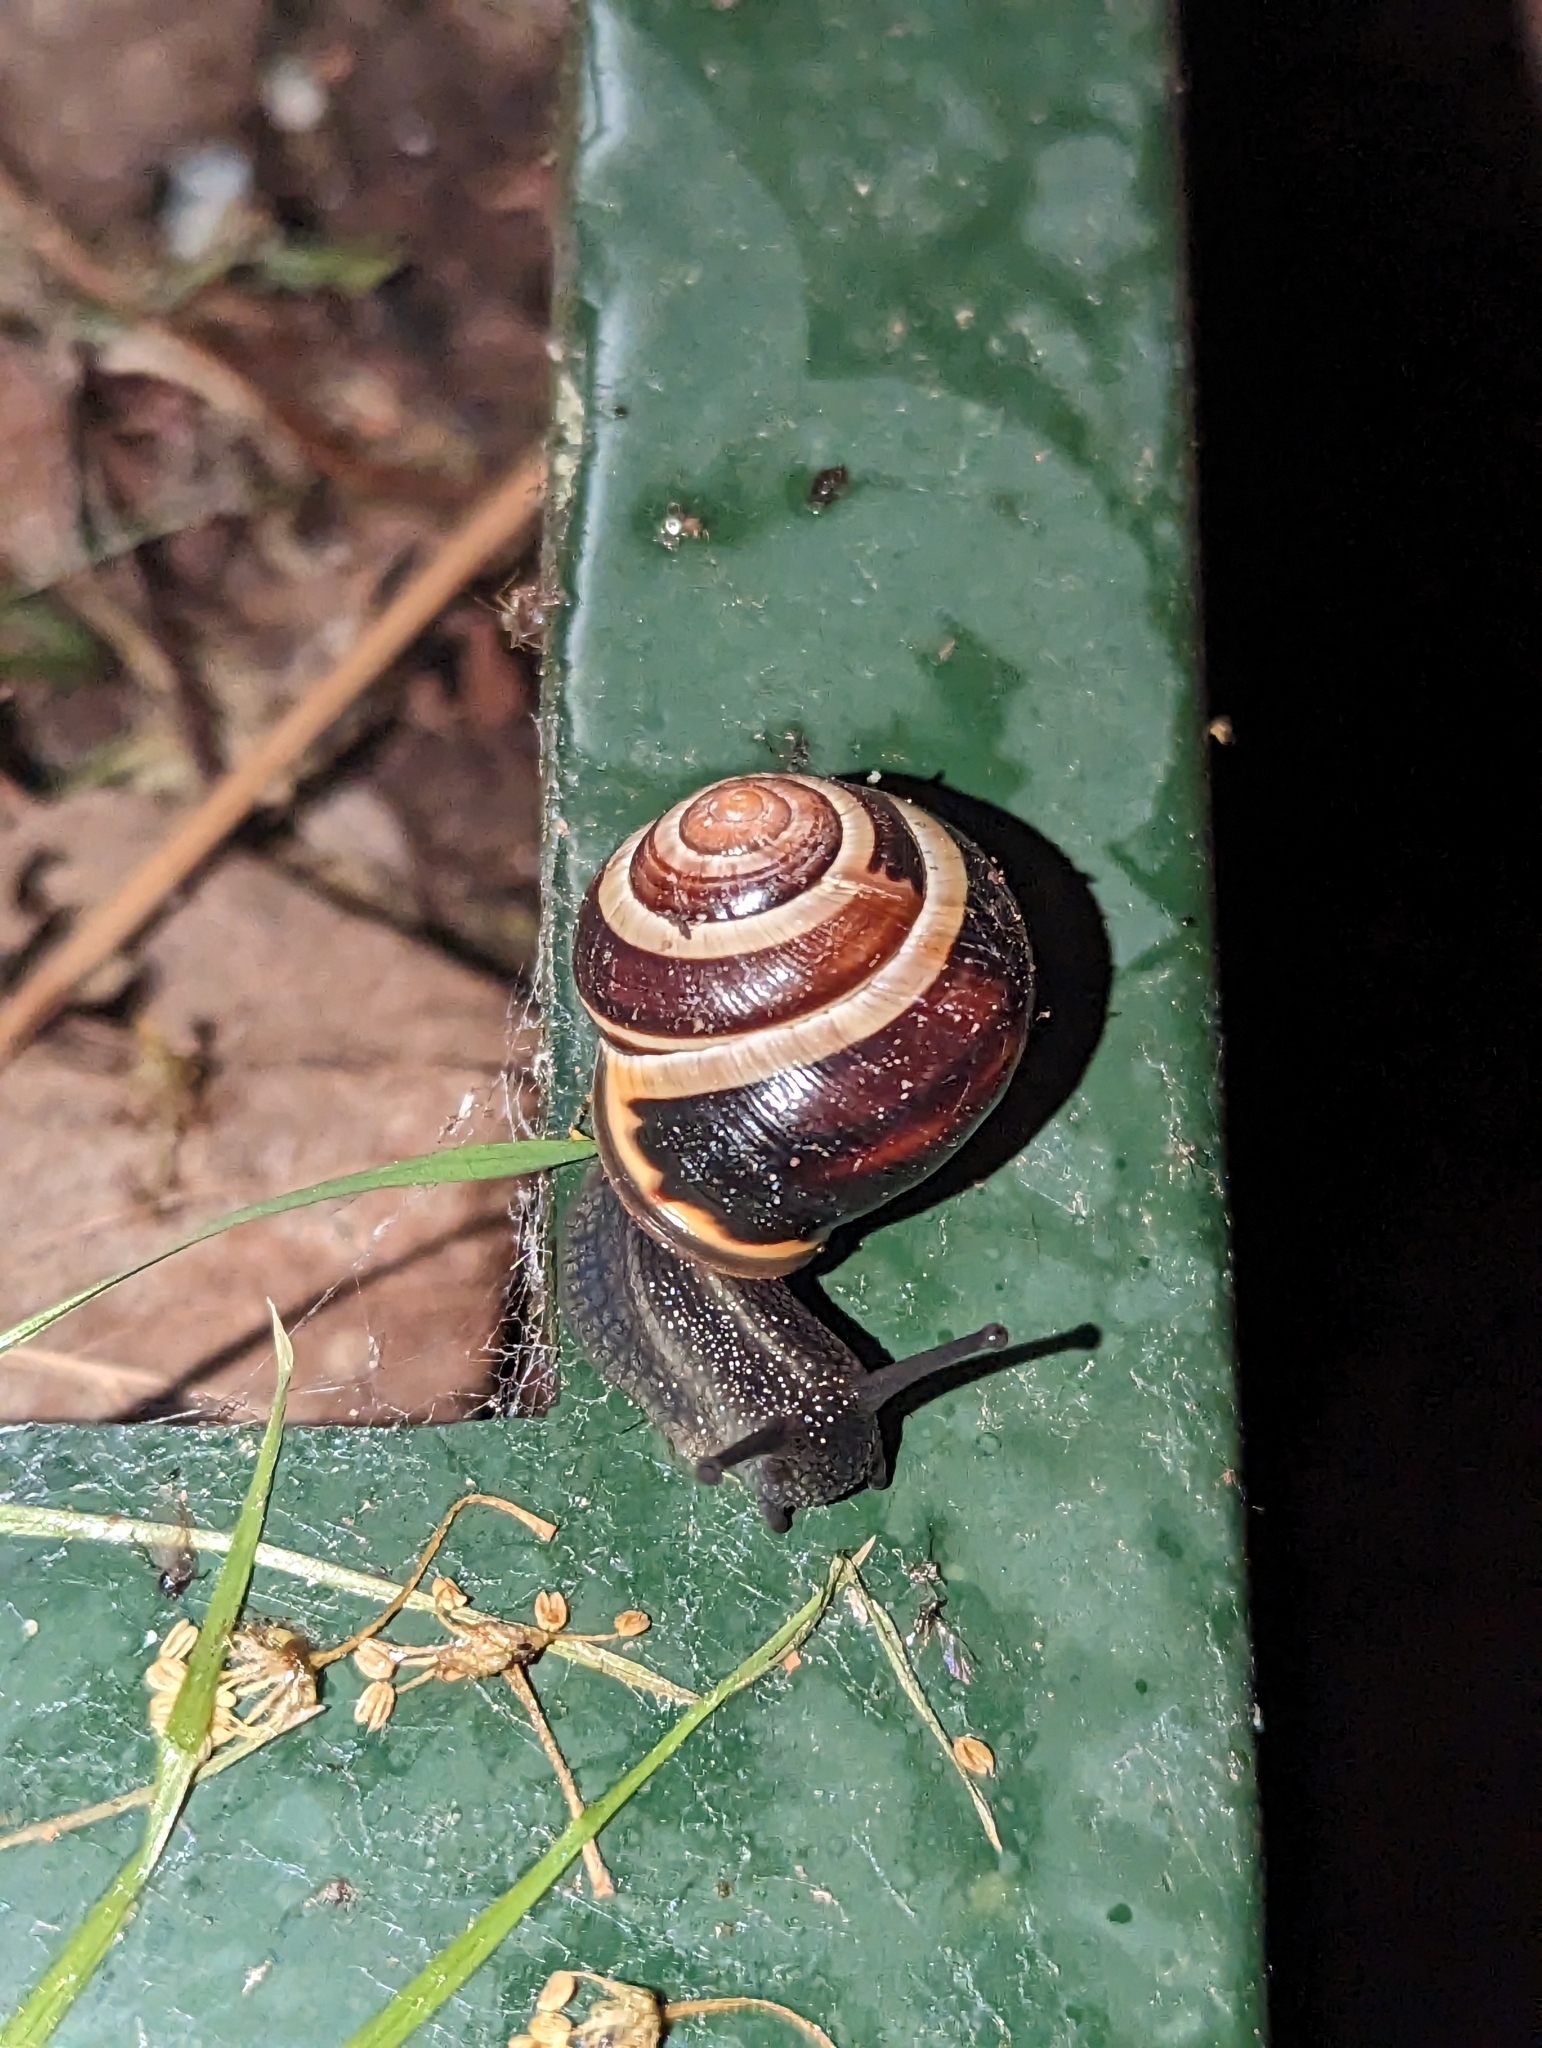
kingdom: Animalia
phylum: Mollusca
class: Gastropoda
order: Stylommatophora
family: Helicidae
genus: Cepaea
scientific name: Cepaea nemoralis
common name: Grovesnail
